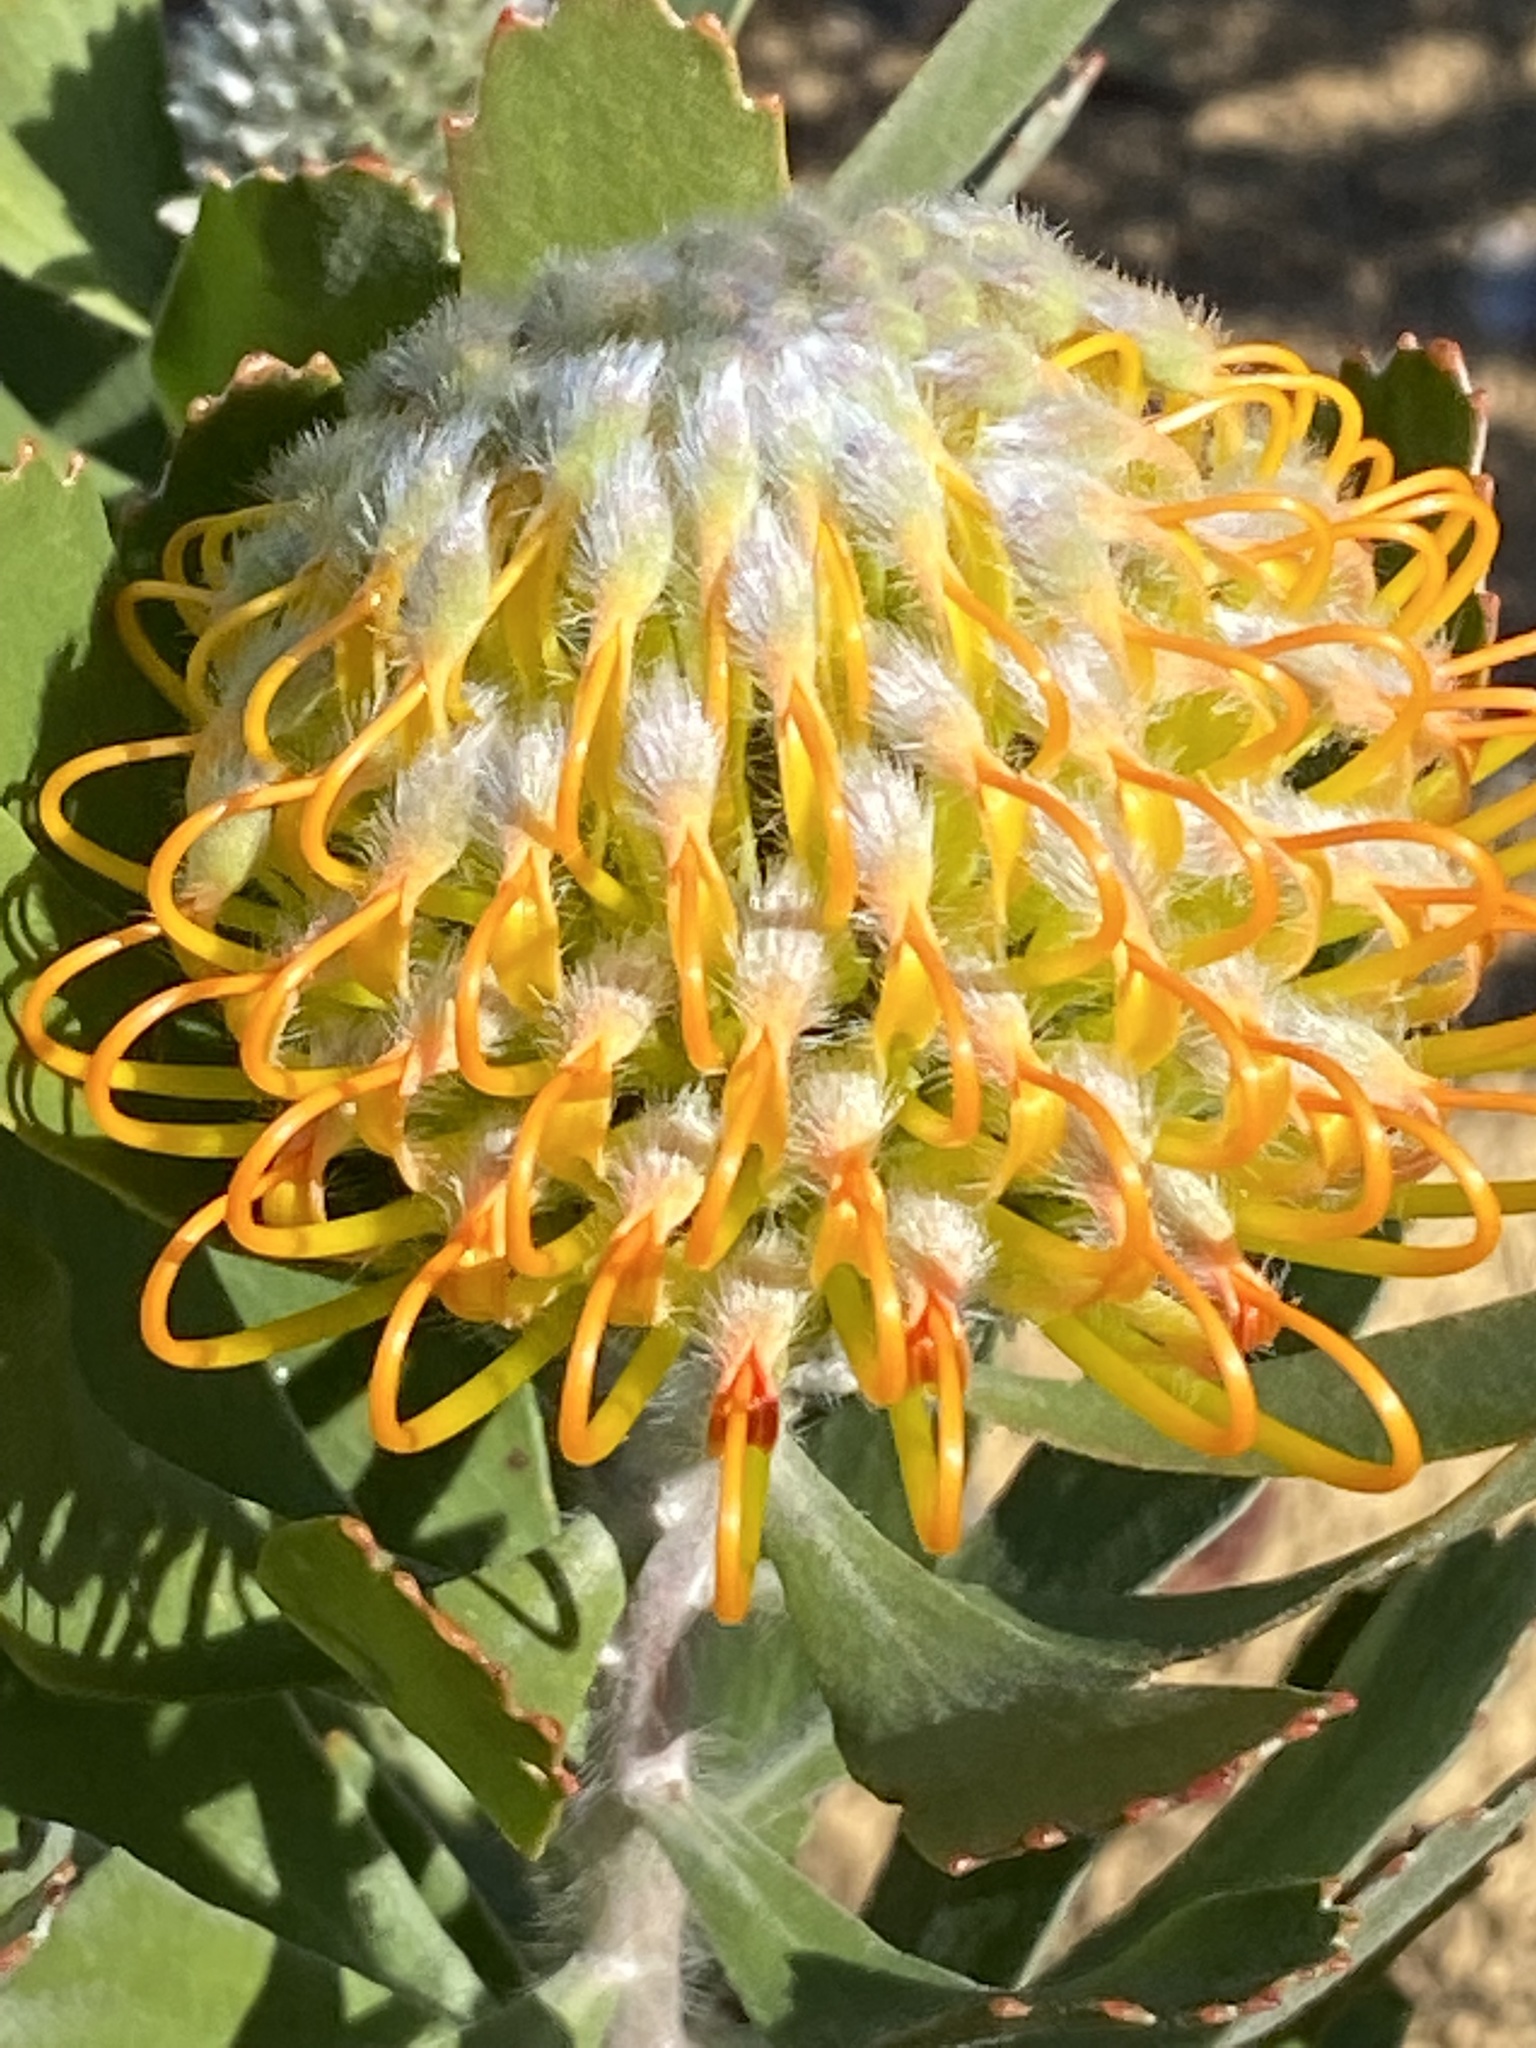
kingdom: Plantae
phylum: Tracheophyta
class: Magnoliopsida
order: Proteales
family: Proteaceae
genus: Leucospermum
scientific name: Leucospermum praecox
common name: Mossel bay pincushion
